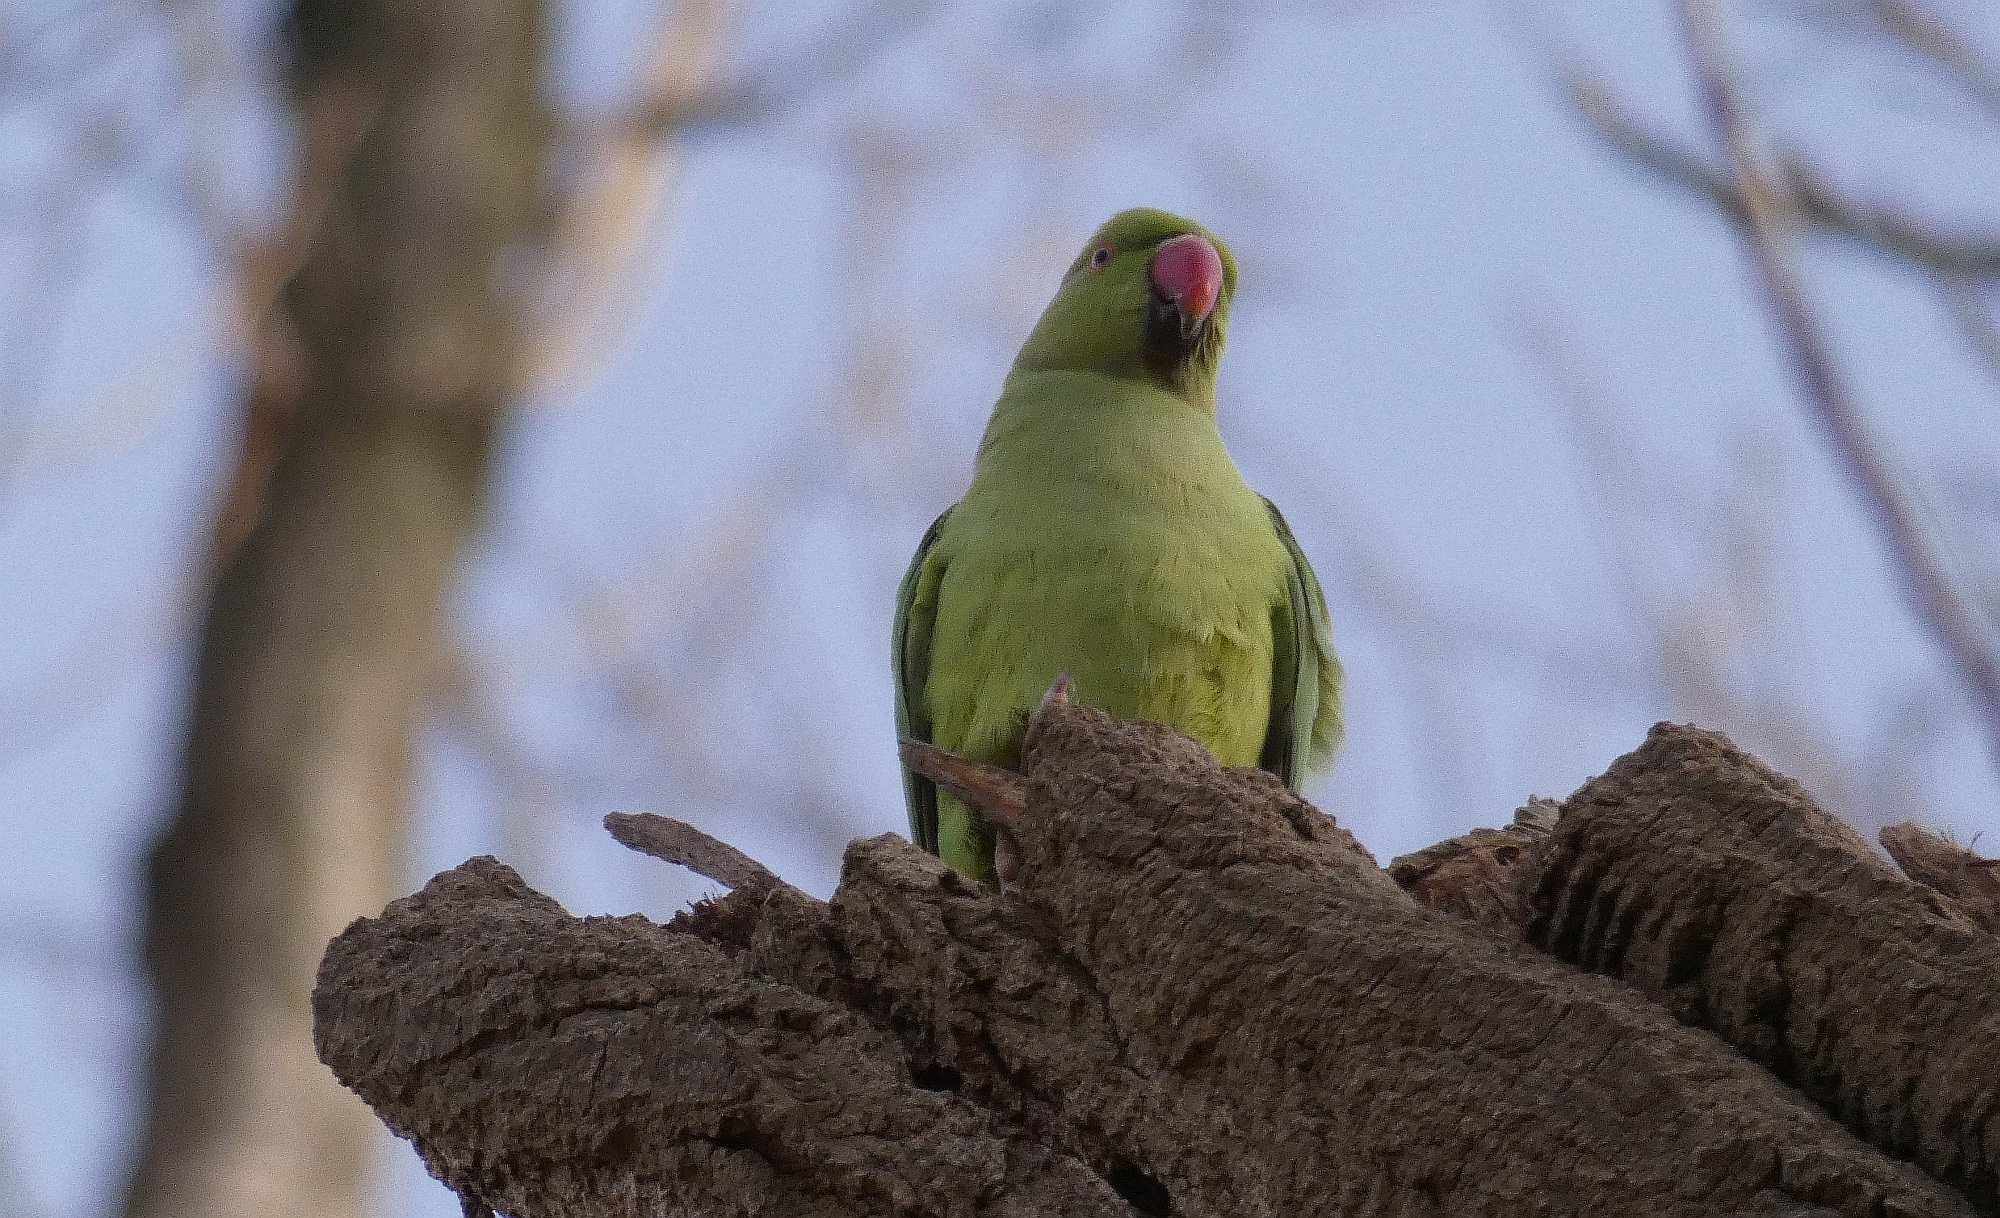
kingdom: Animalia
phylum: Chordata
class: Aves
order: Psittaciformes
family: Psittacidae
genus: Psittacula
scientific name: Psittacula krameri
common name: Rose-ringed parakeet
